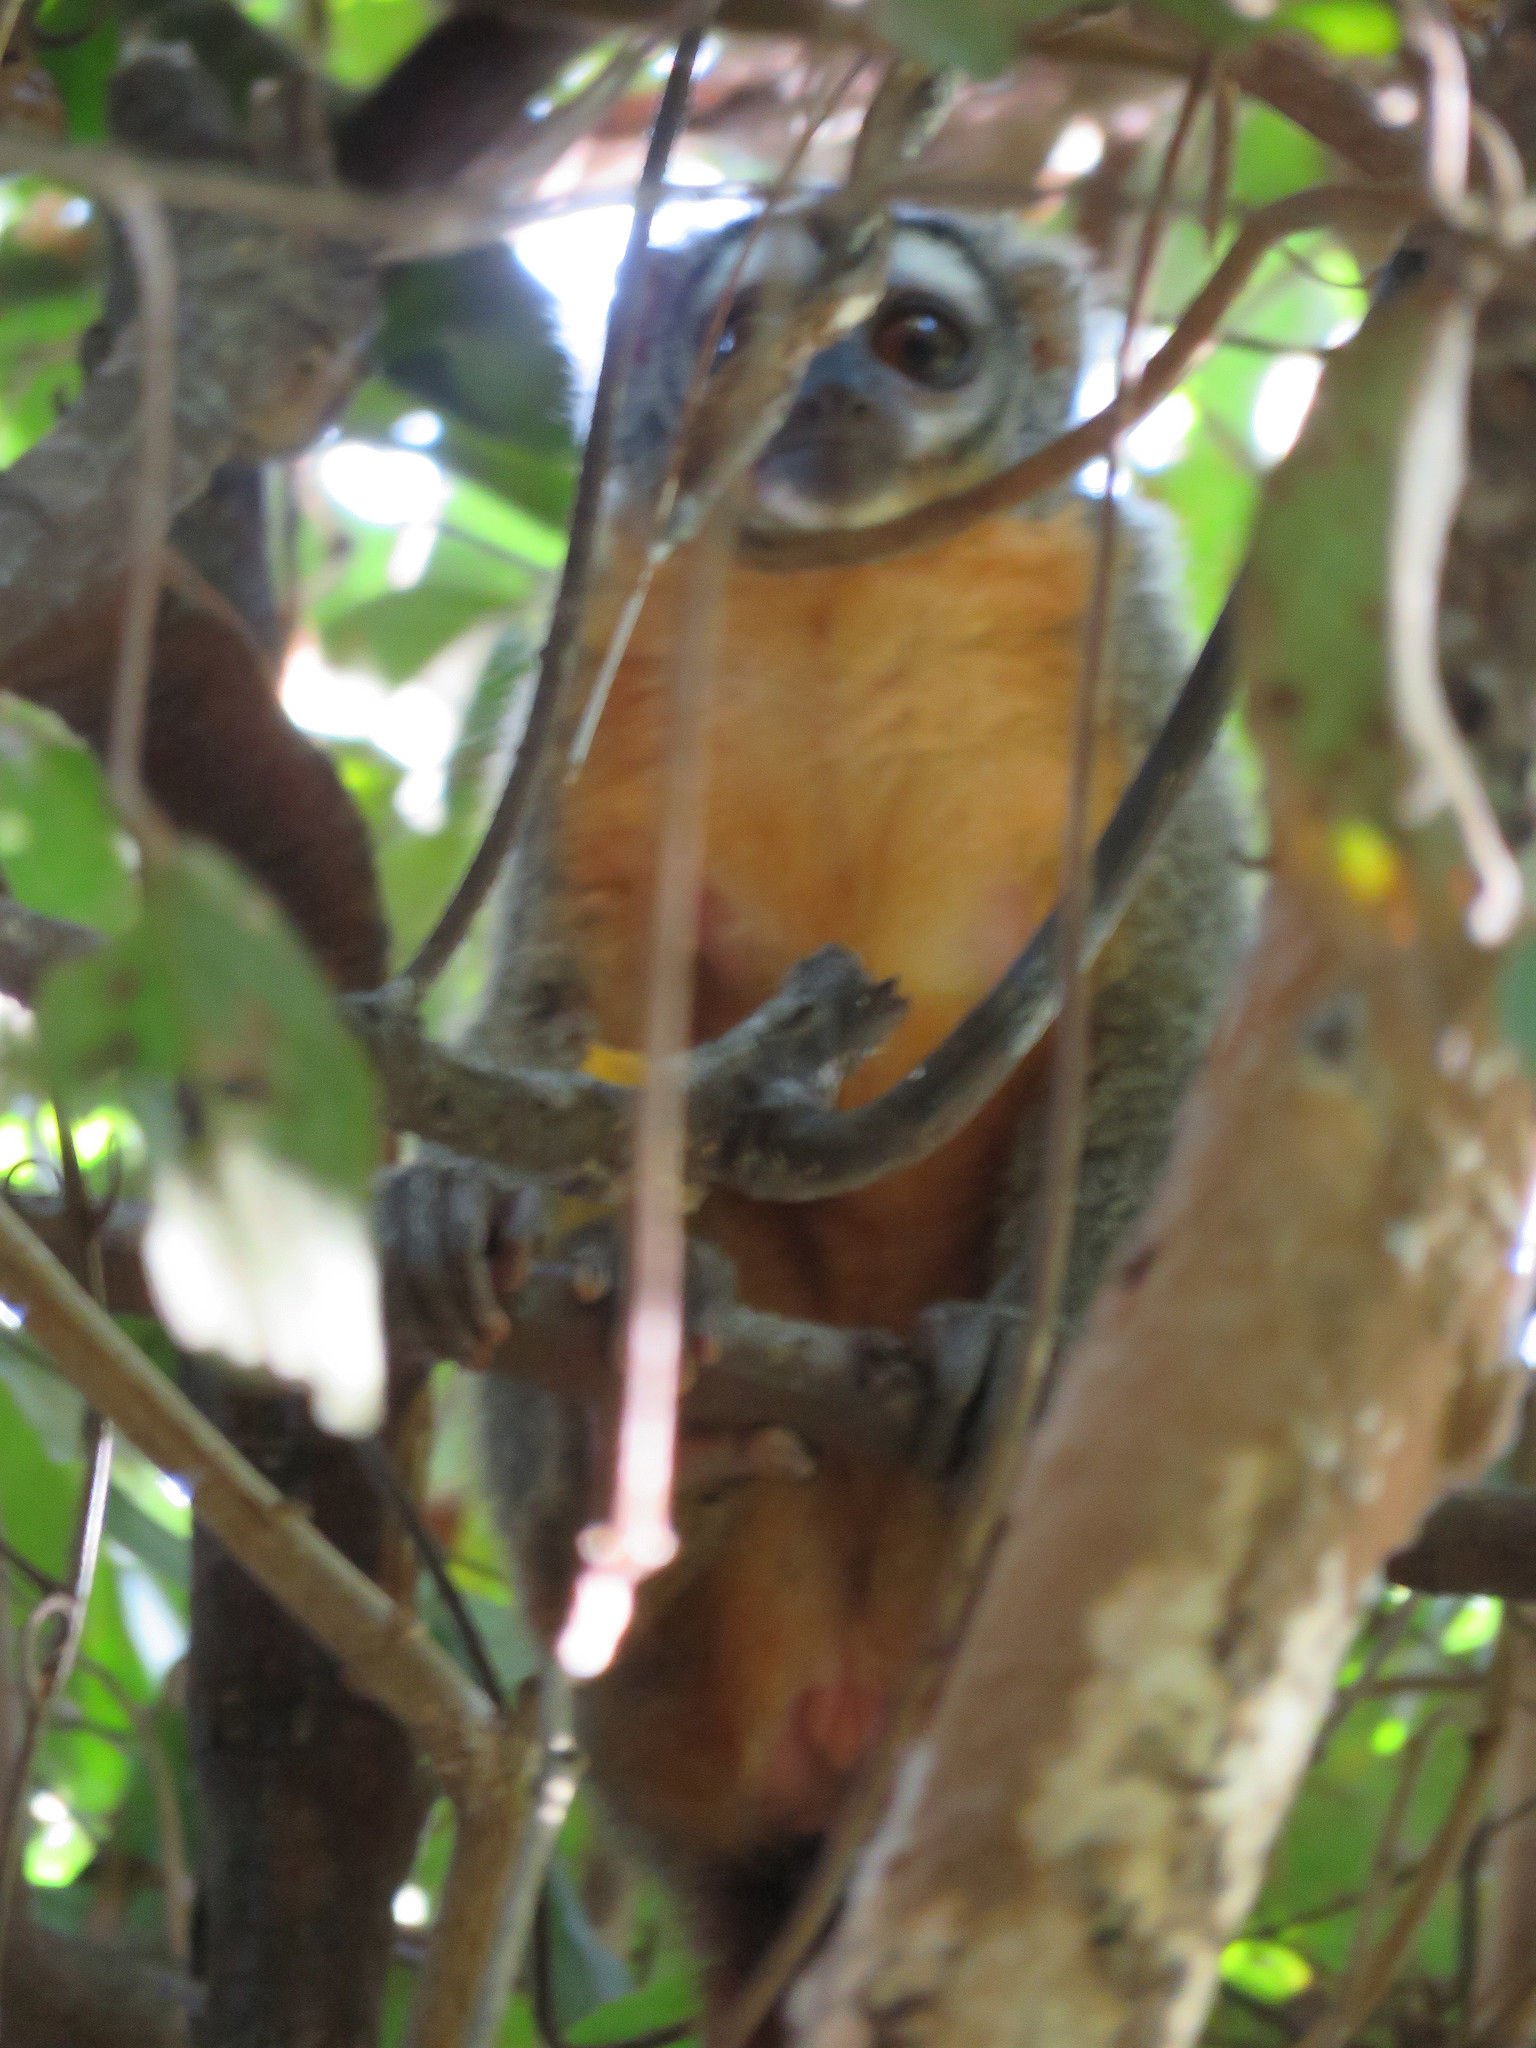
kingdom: Animalia
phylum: Chordata
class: Mammalia
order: Primates
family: Aotidae
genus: Aotus
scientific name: Aotus azarae
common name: Azara's night monkey
